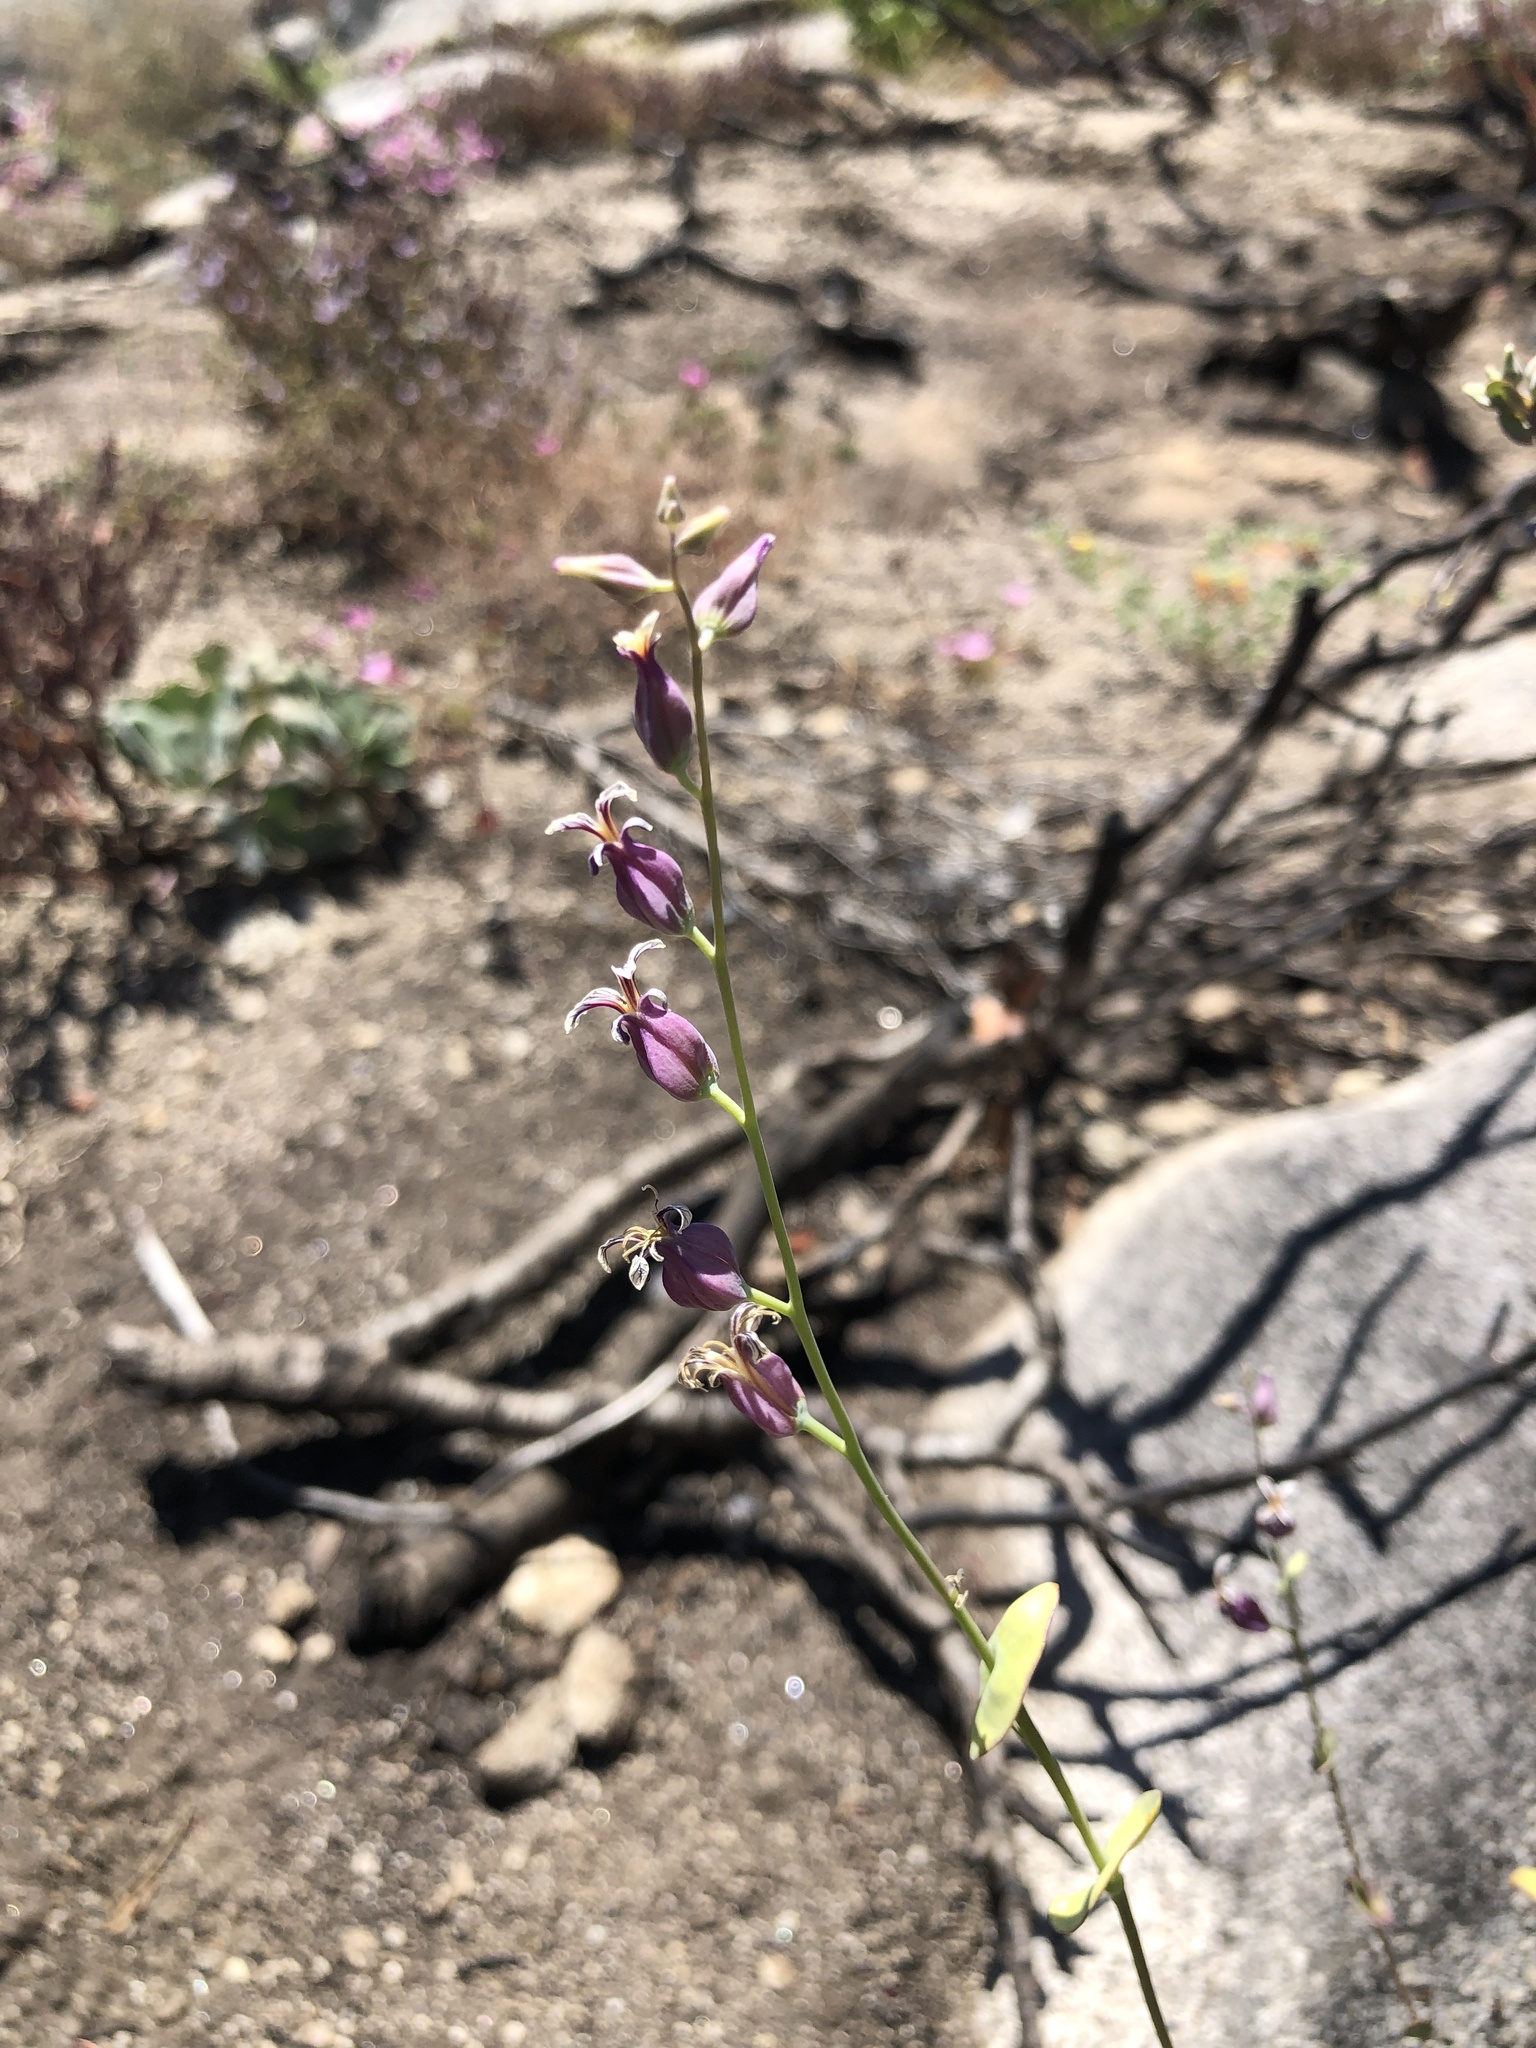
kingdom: Plantae
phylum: Tracheophyta
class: Magnoliopsida
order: Brassicales
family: Brassicaceae
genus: Streptanthus
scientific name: Streptanthus tortuosus
